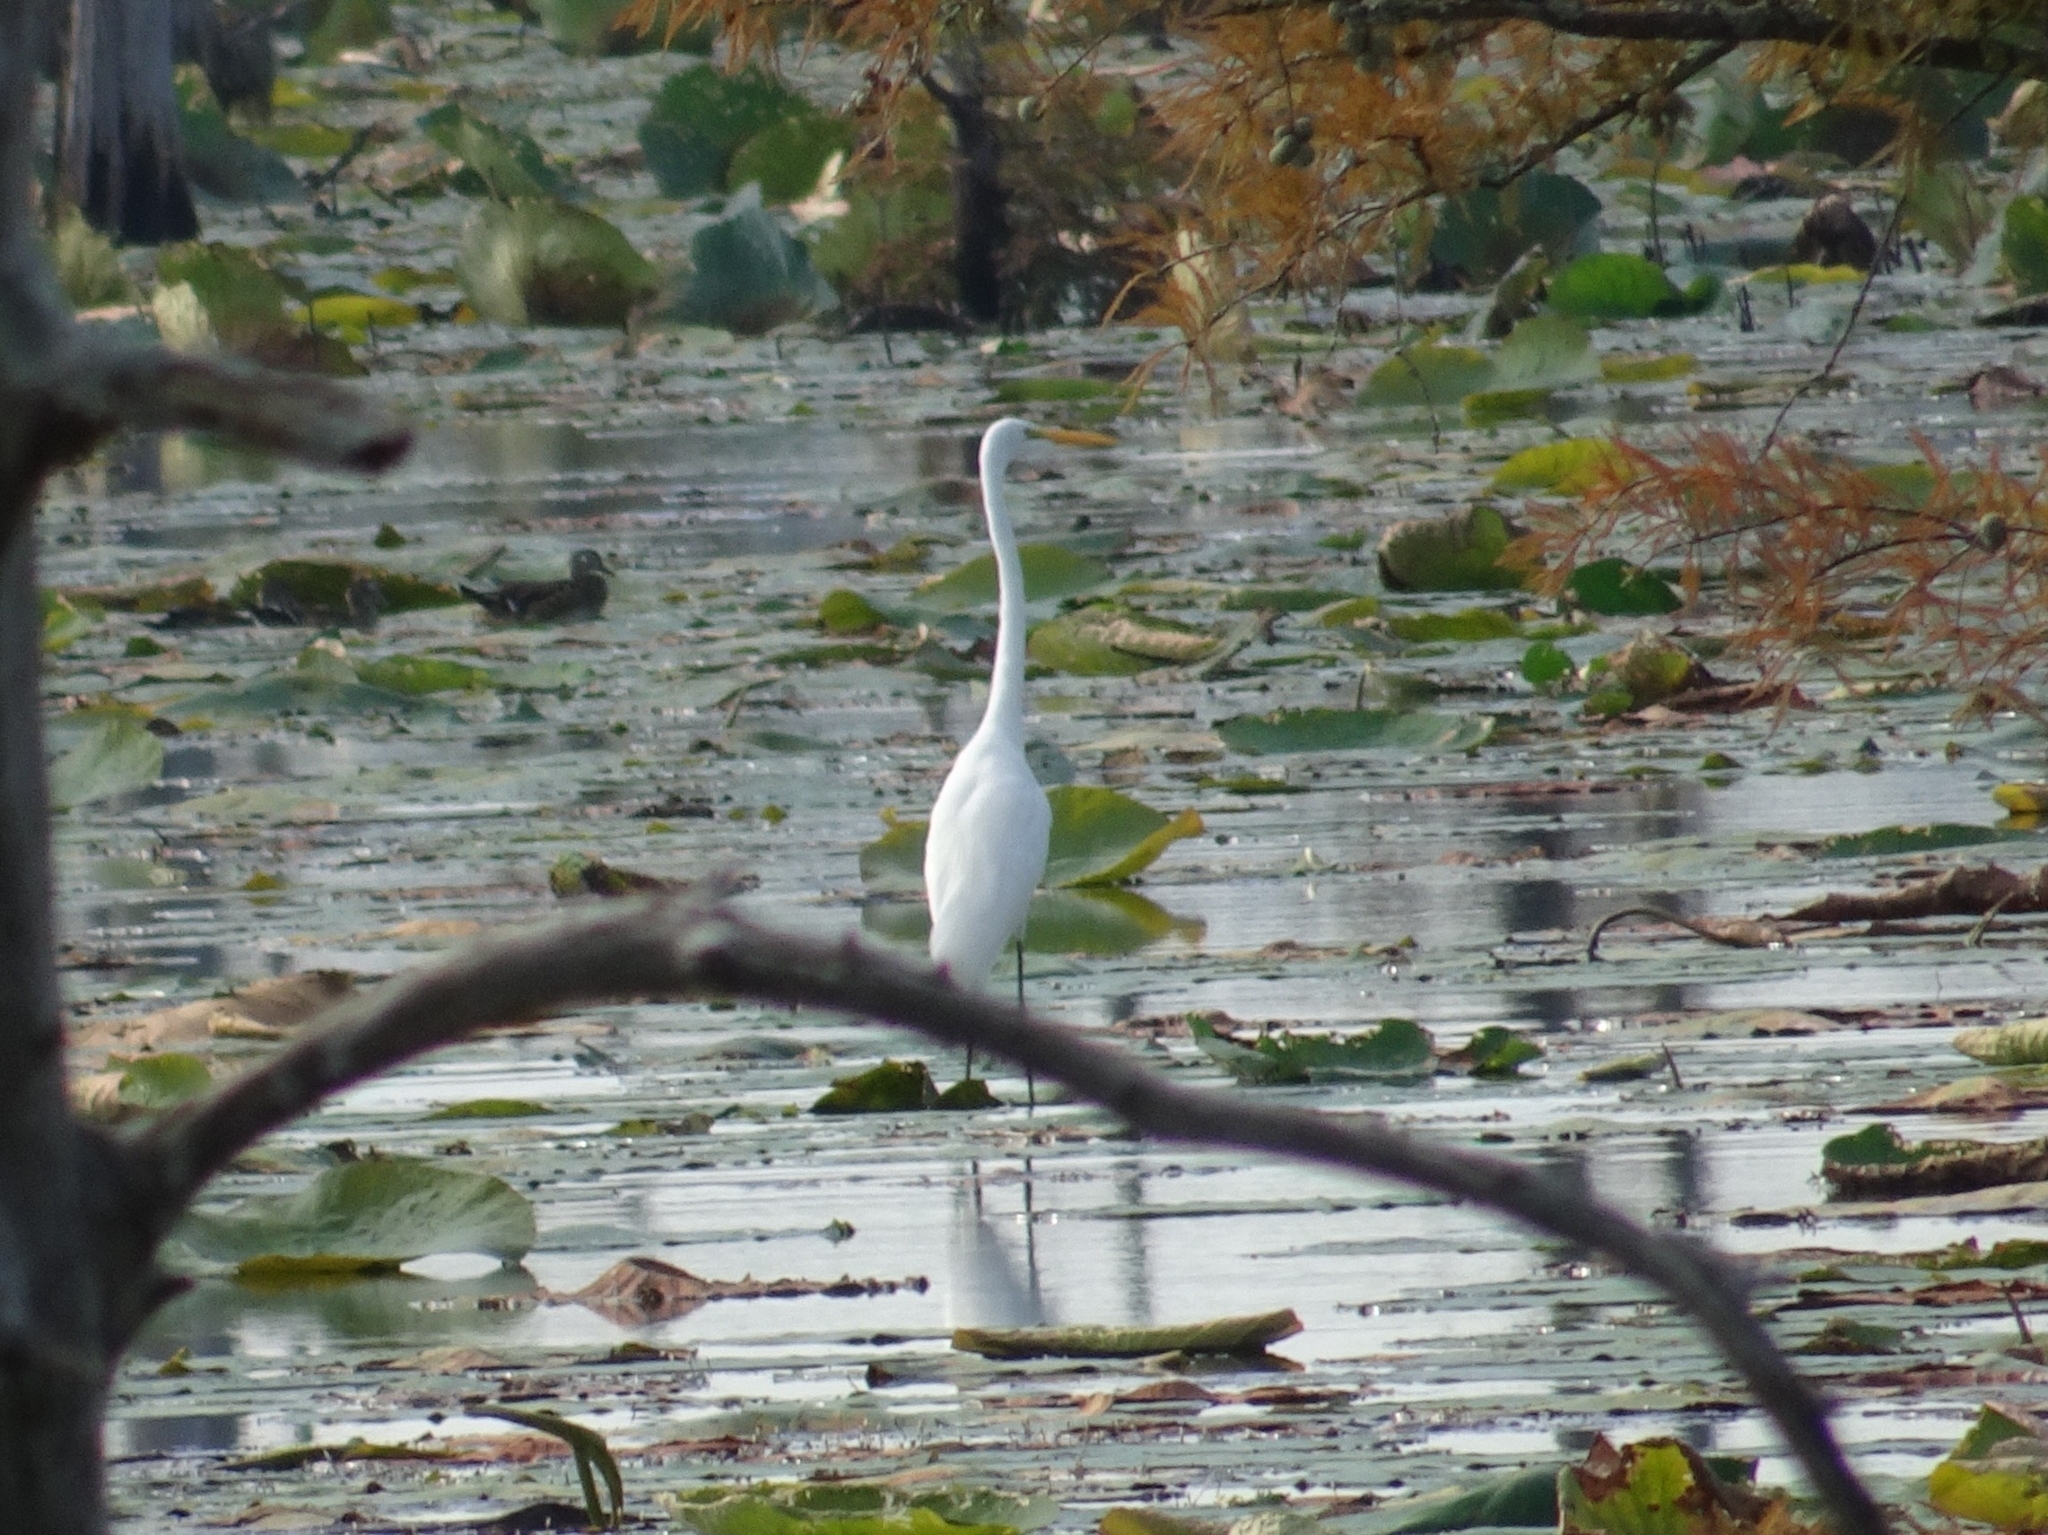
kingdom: Animalia
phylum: Chordata
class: Aves
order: Pelecaniformes
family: Ardeidae
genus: Ardea
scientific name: Ardea alba
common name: Great egret
